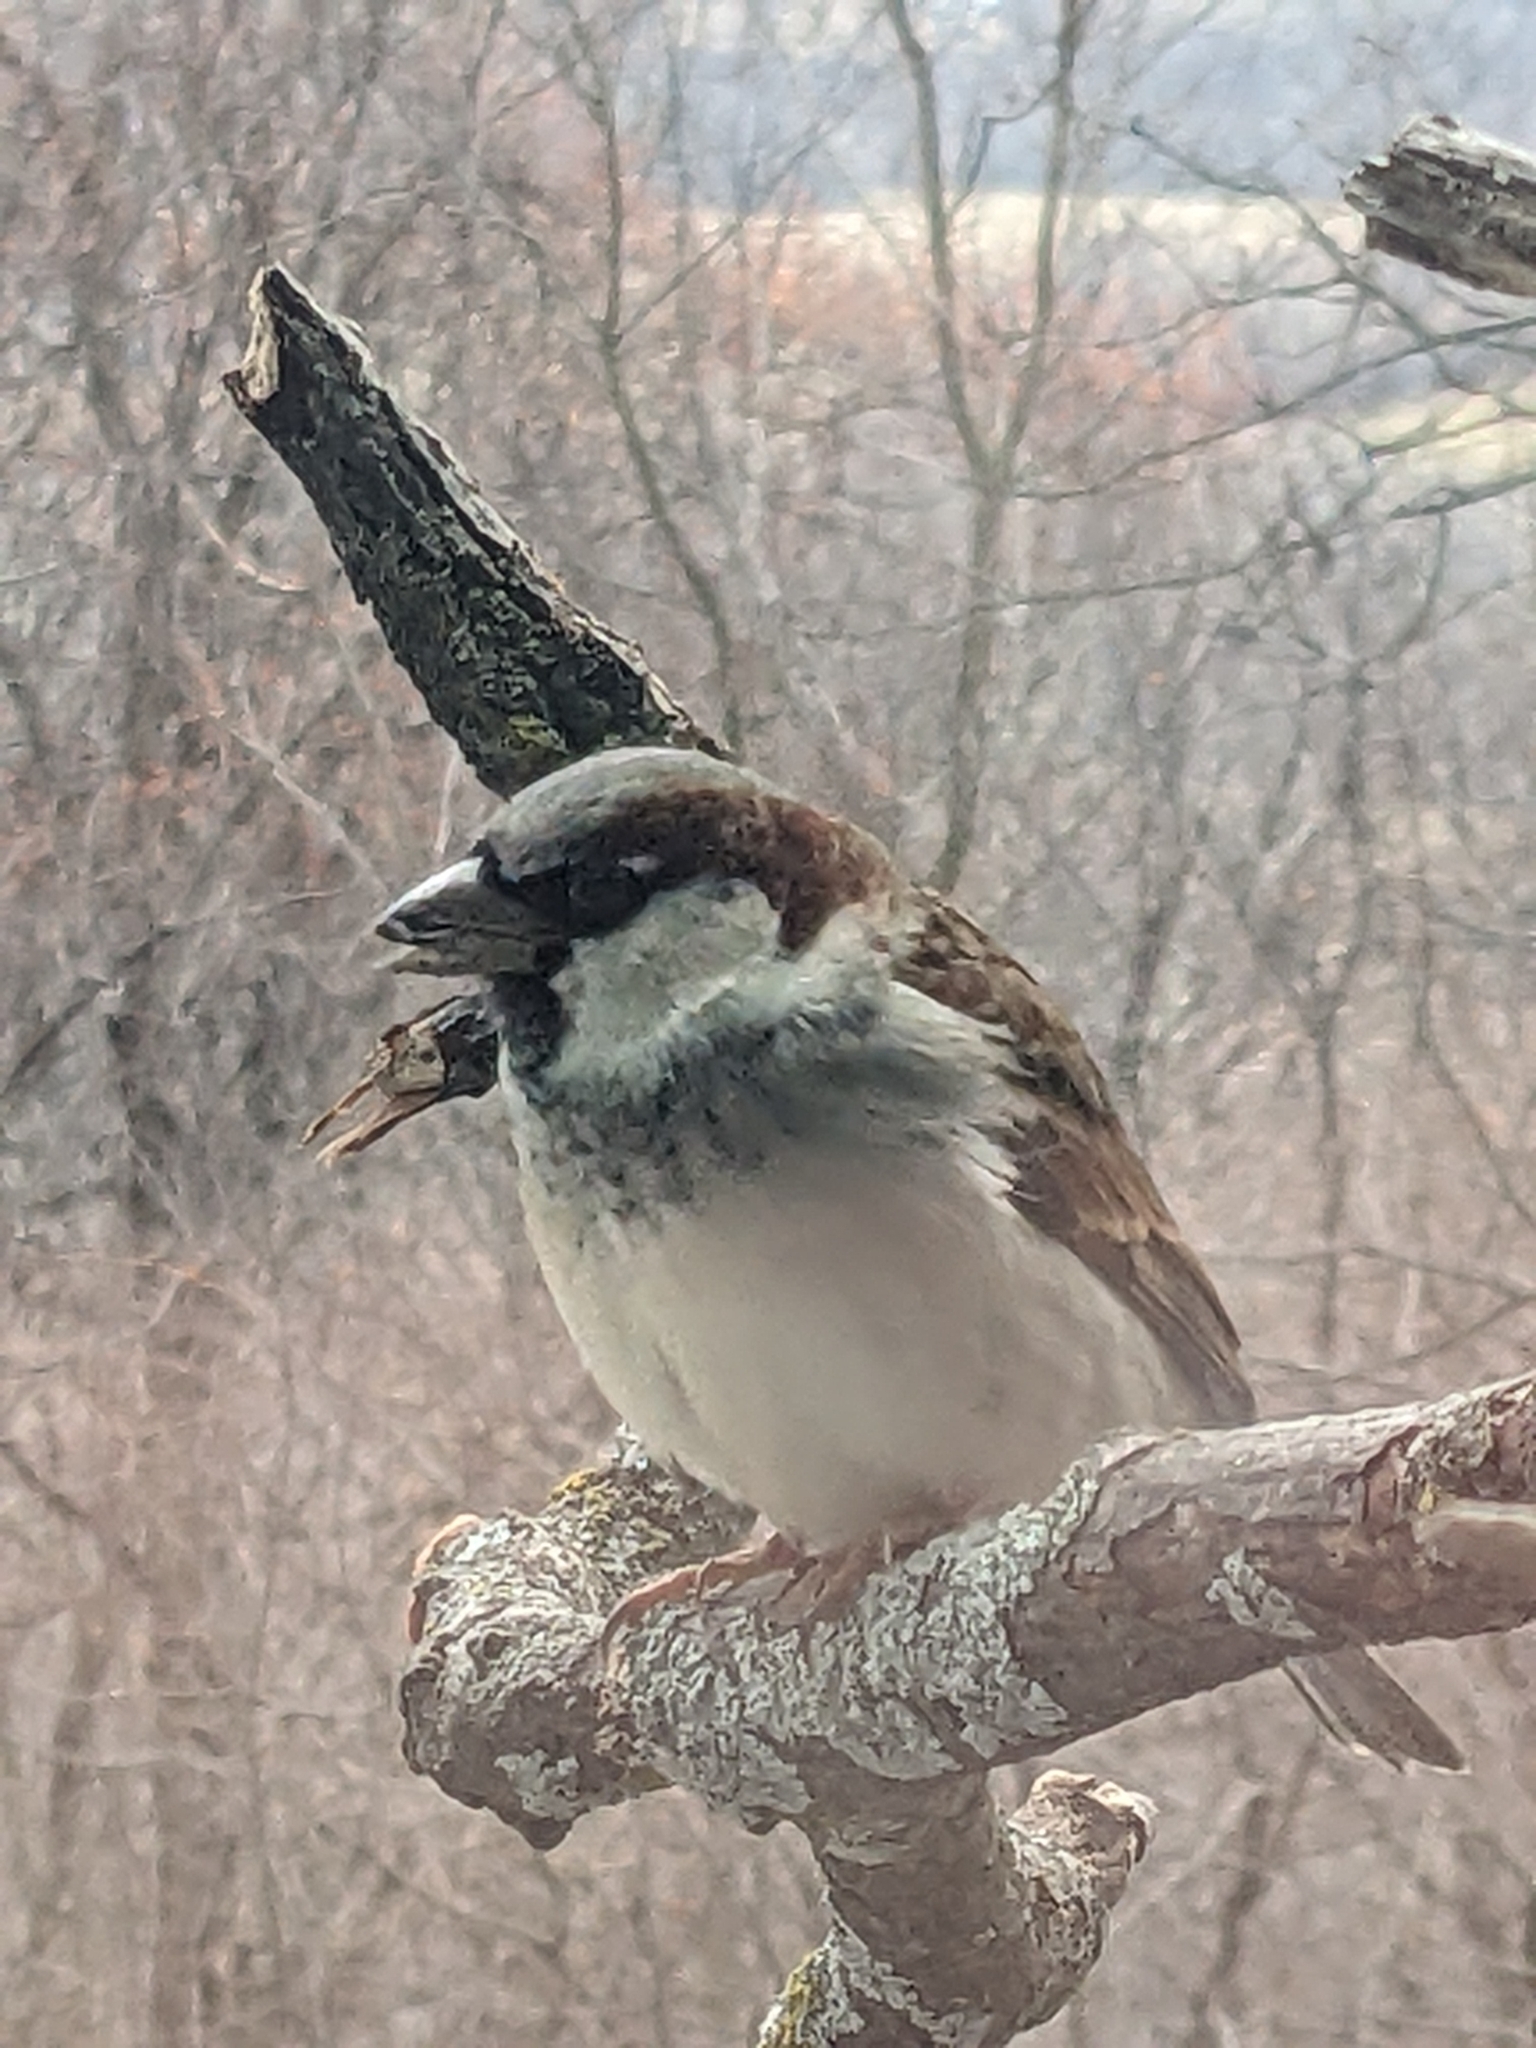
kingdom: Animalia
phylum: Chordata
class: Aves
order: Passeriformes
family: Passeridae
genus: Passer
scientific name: Passer domesticus
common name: House sparrow
